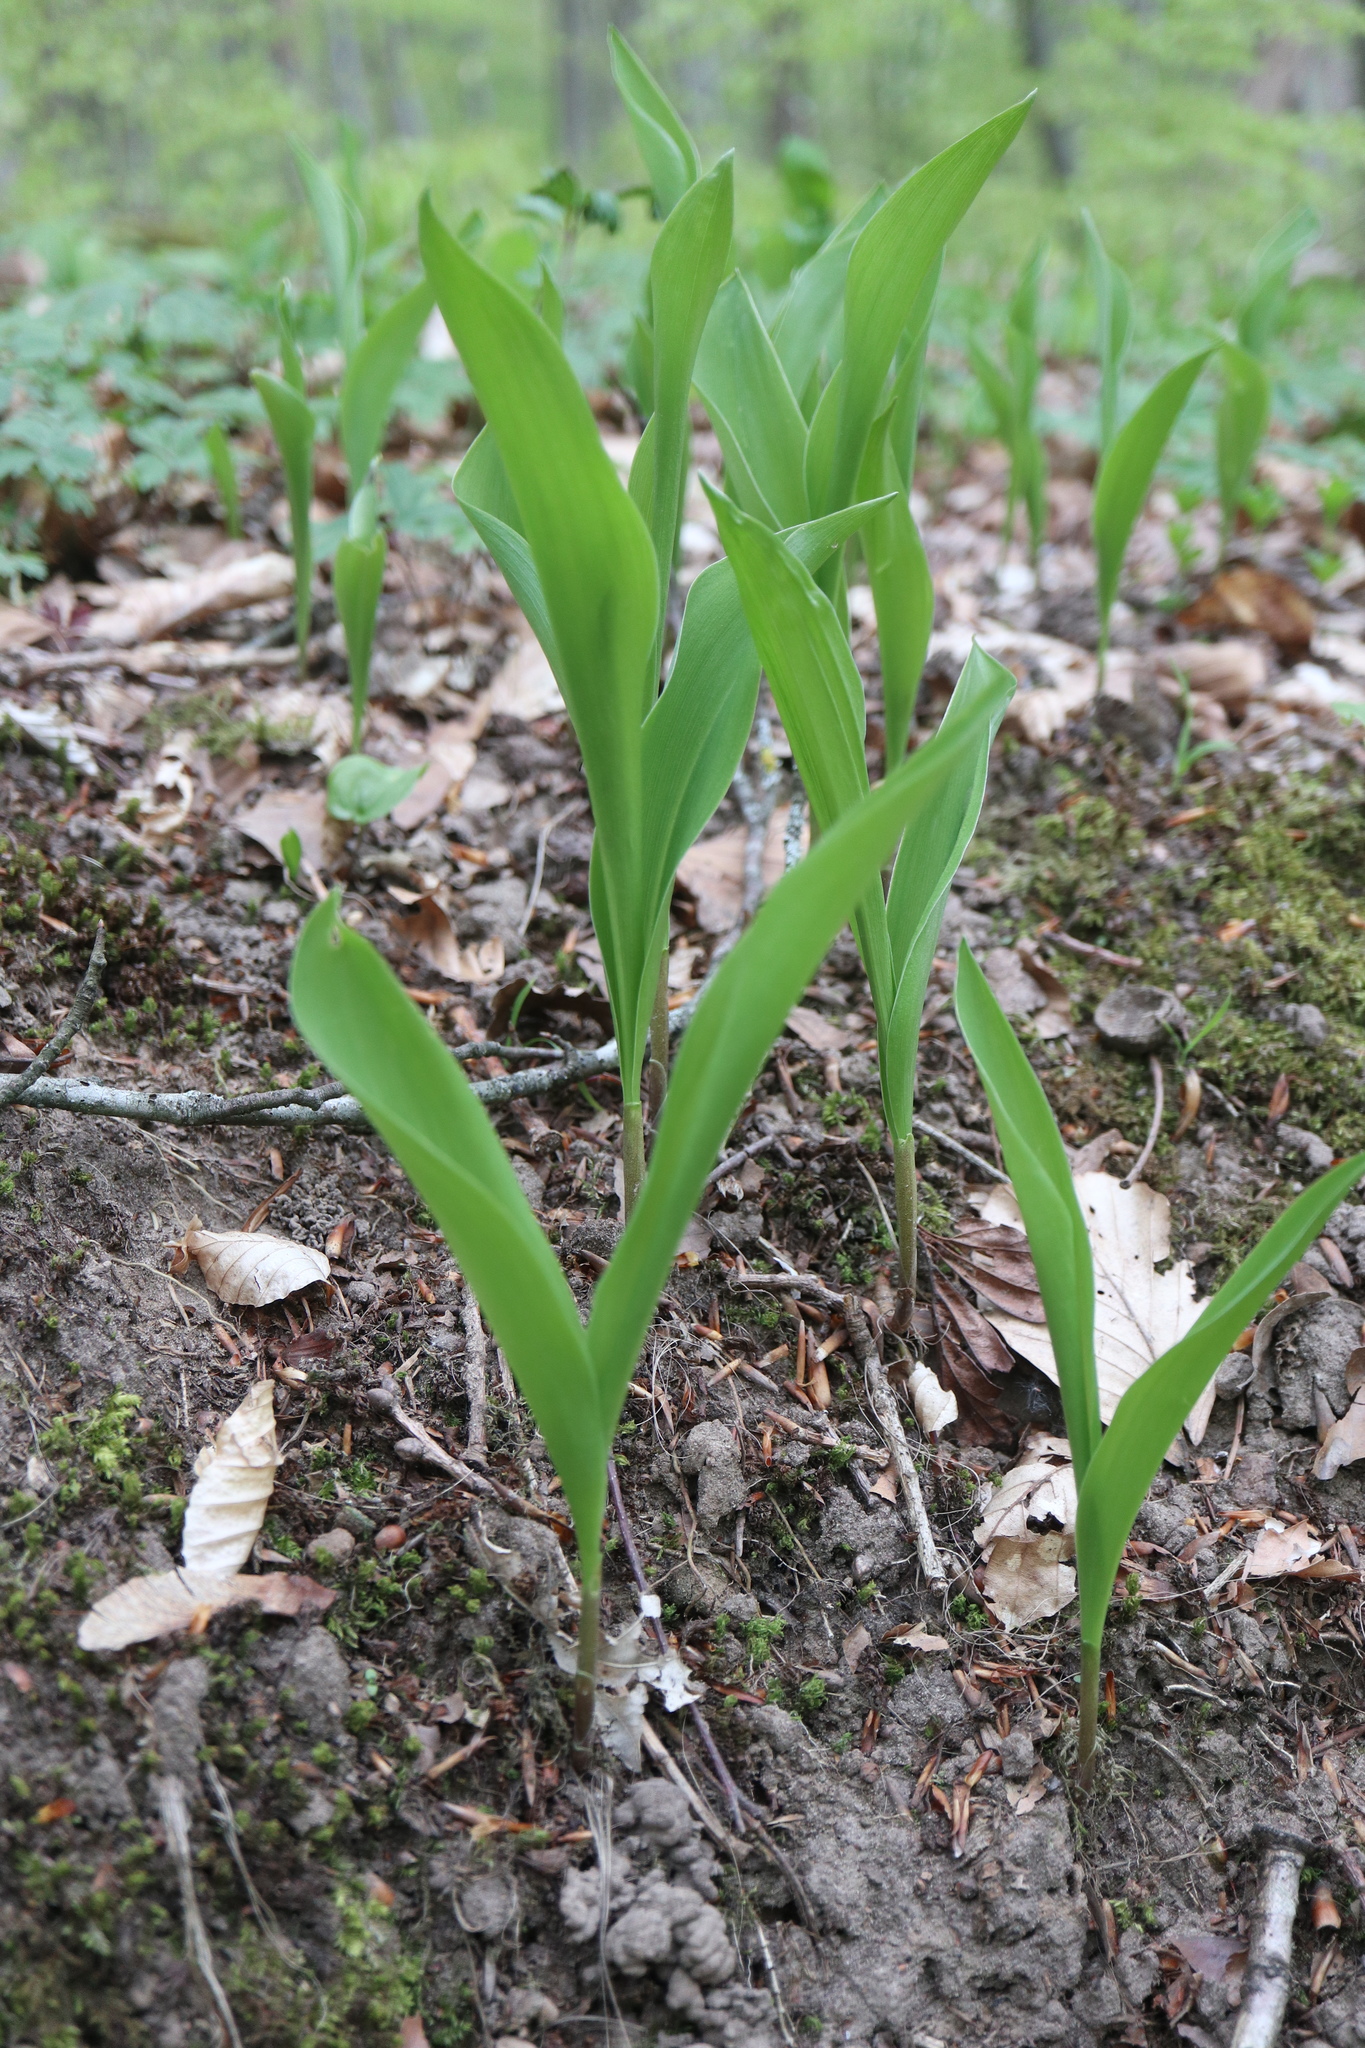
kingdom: Plantae
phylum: Tracheophyta
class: Liliopsida
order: Asparagales
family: Asparagaceae
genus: Convallaria
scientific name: Convallaria majalis
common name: Lily-of-the-valley
